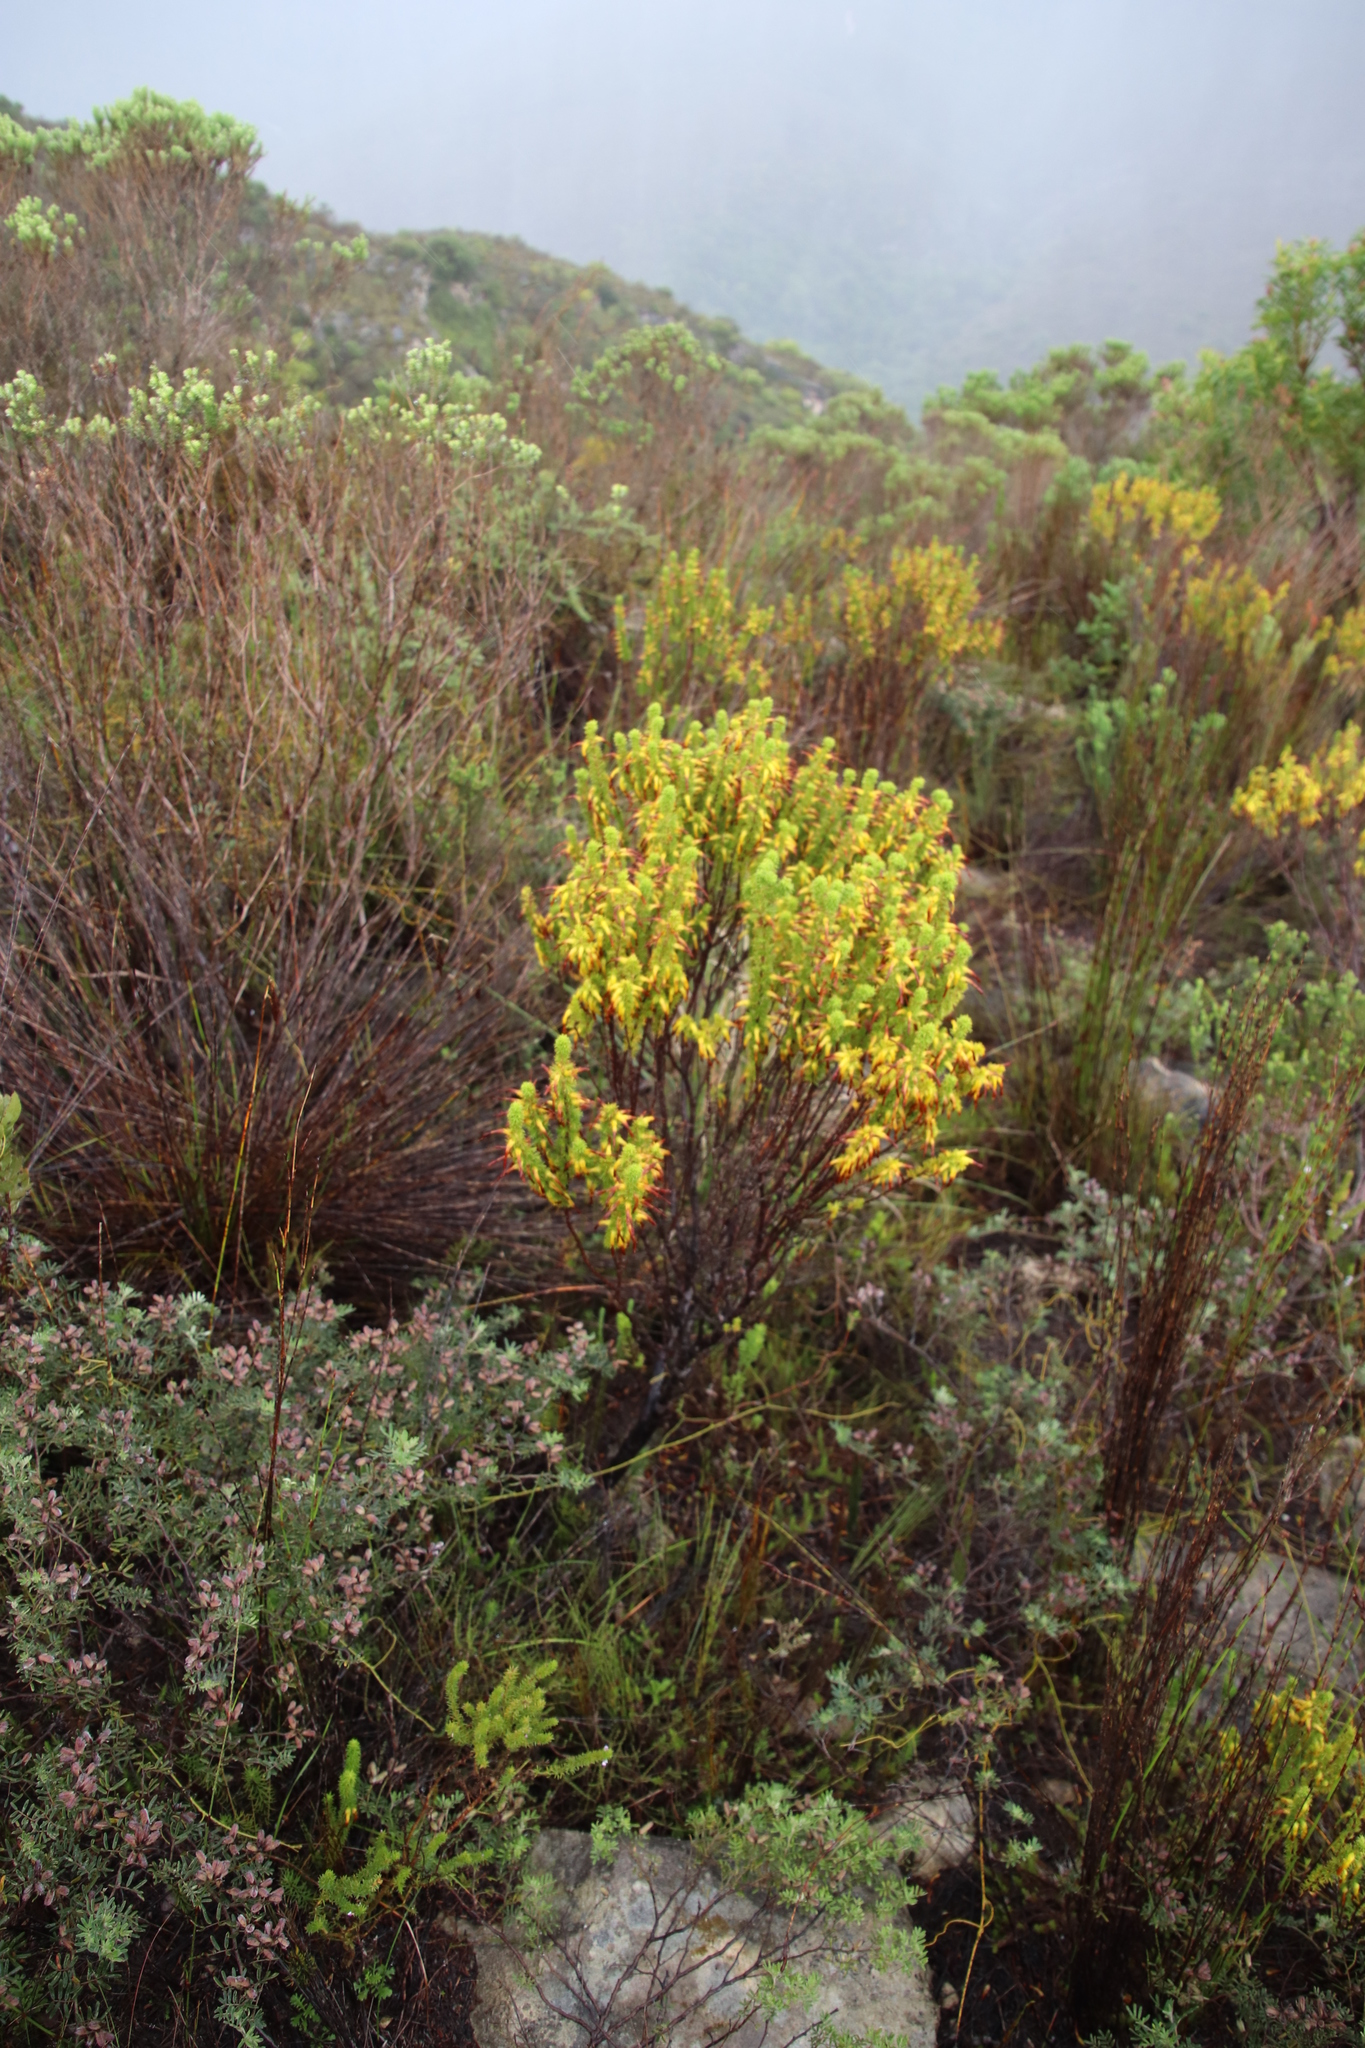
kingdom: Plantae
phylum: Tracheophyta
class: Magnoliopsida
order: Ericales
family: Ericaceae
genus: Erica
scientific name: Erica coccinea
